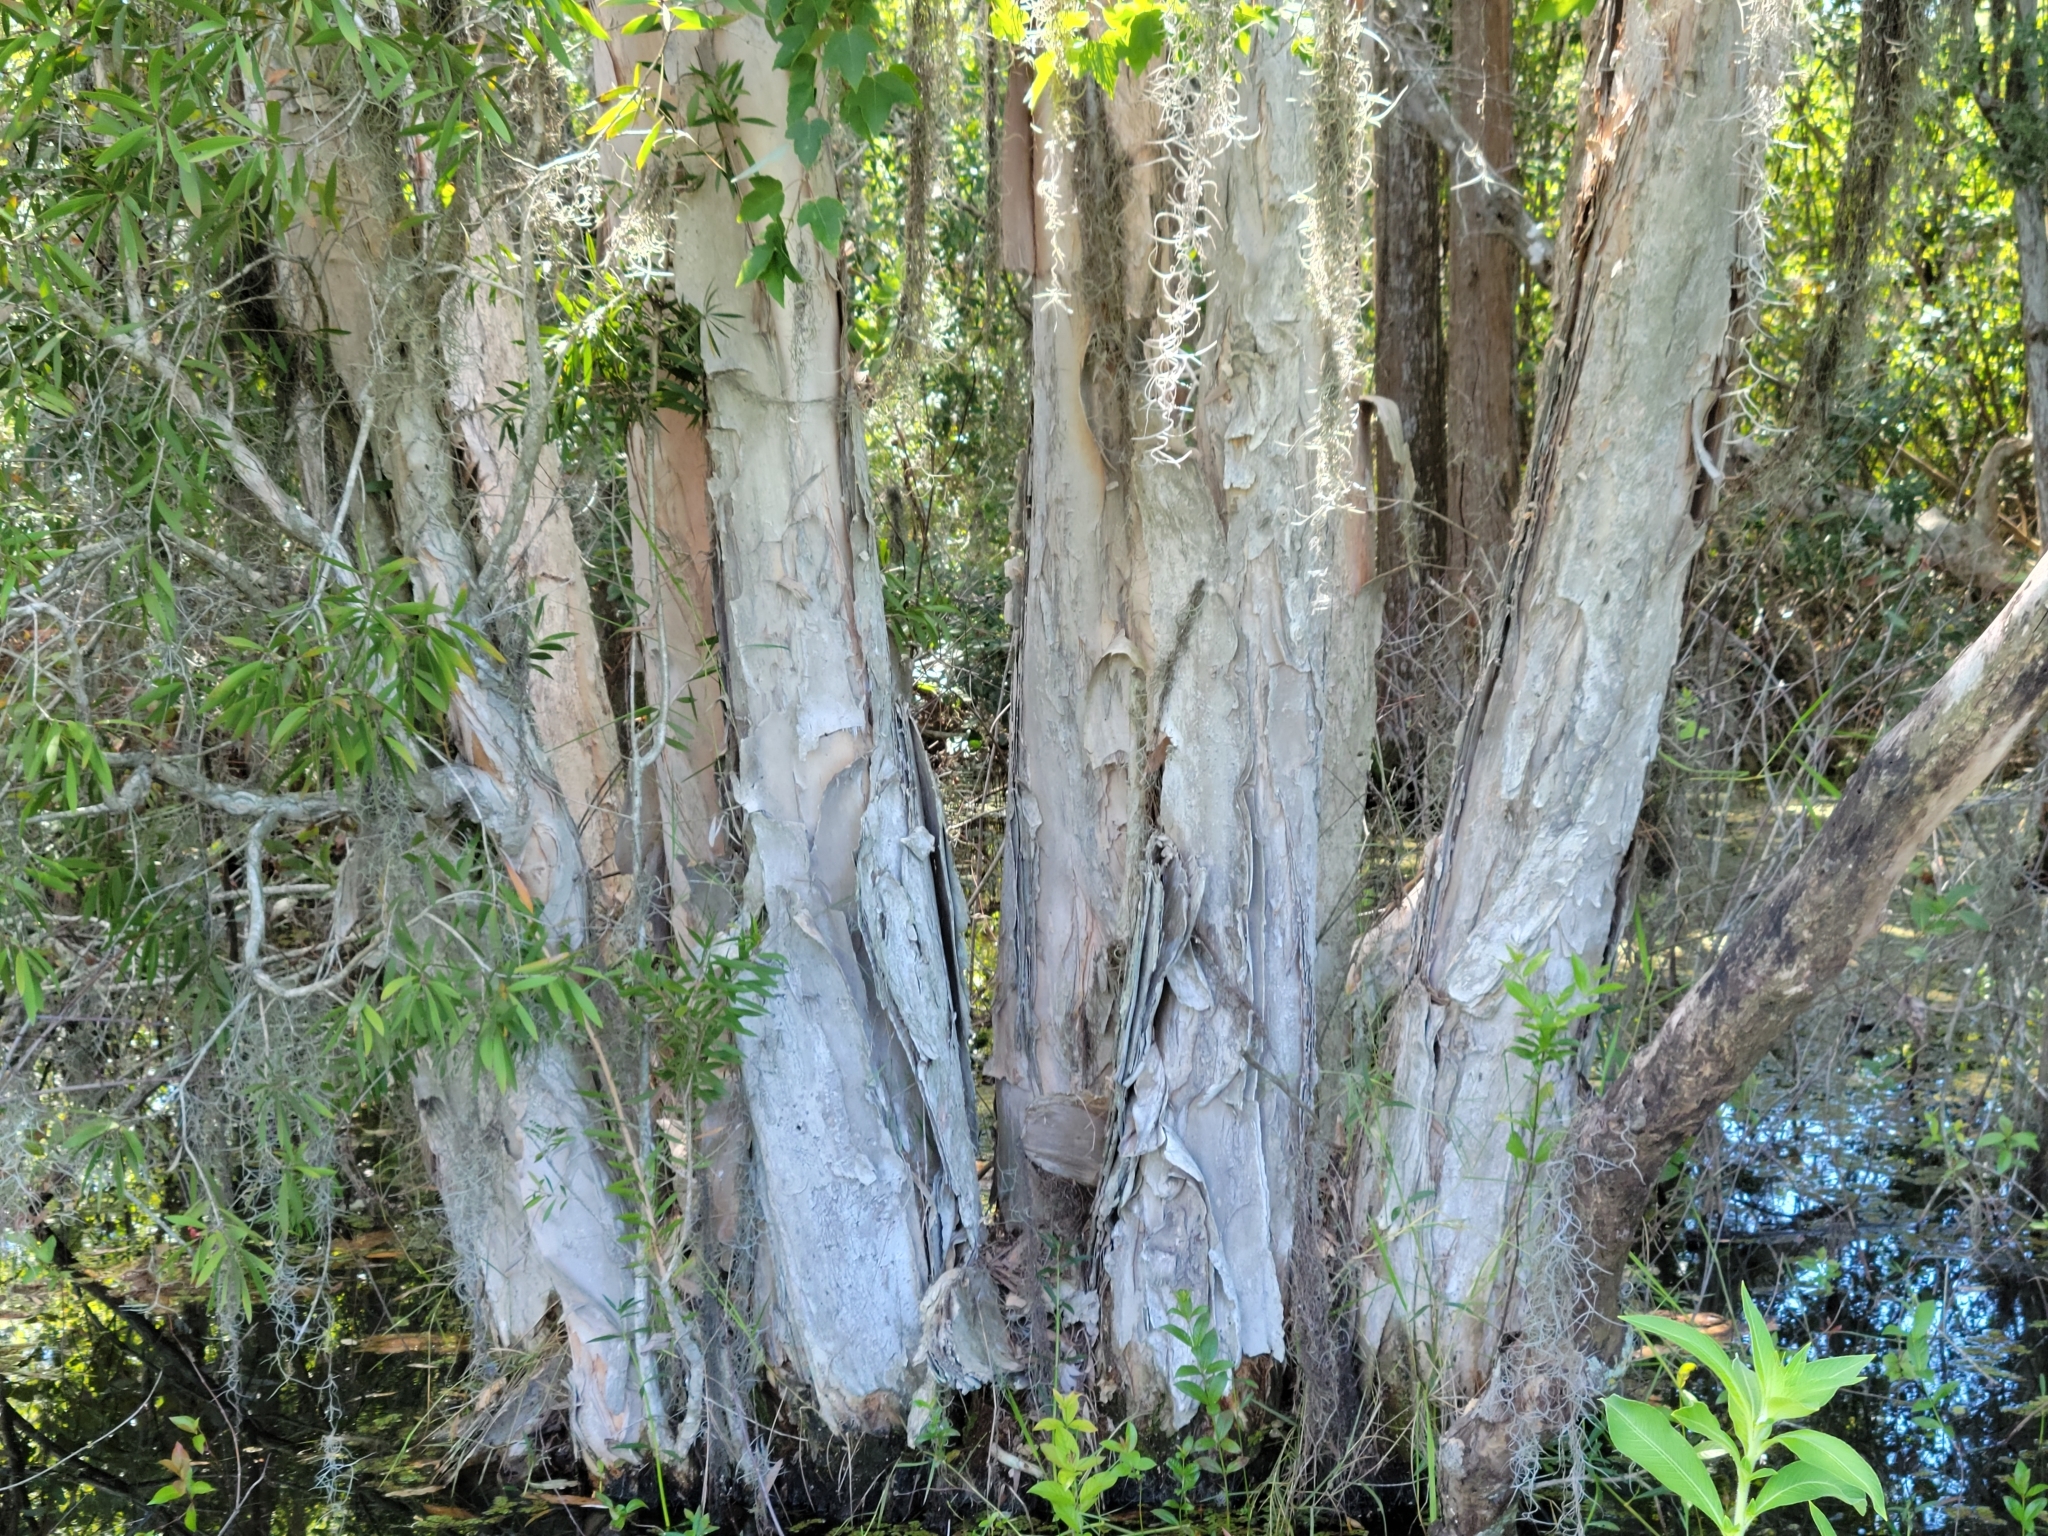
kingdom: Plantae
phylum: Tracheophyta
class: Magnoliopsida
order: Myrtales
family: Myrtaceae
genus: Melaleuca
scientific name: Melaleuca quinquenervia
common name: Punktree
